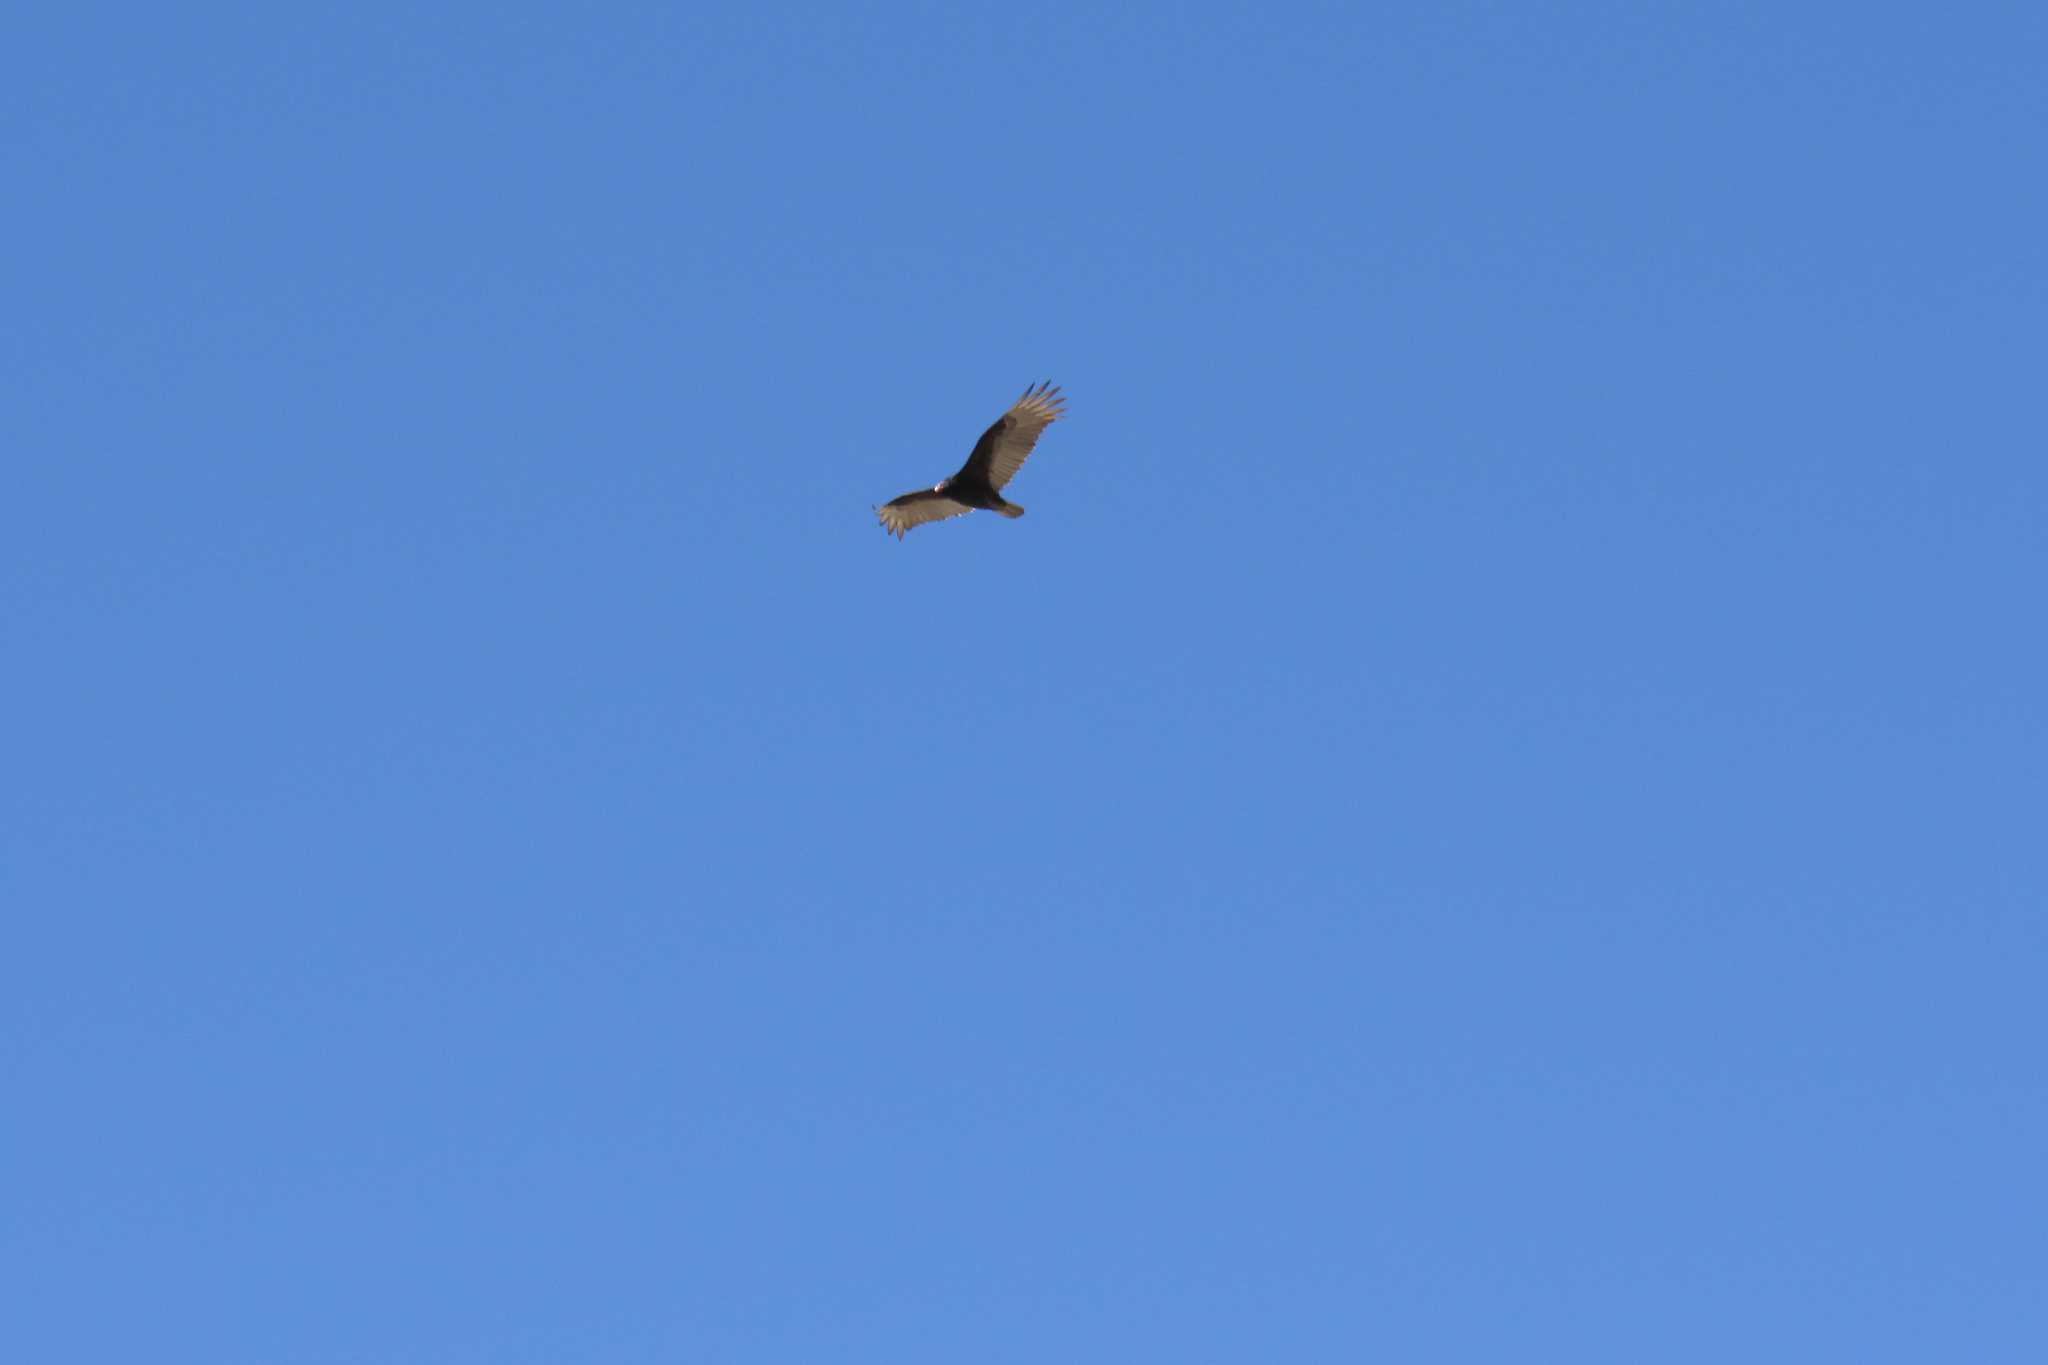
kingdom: Animalia
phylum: Chordata
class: Aves
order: Accipitriformes
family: Cathartidae
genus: Cathartes
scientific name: Cathartes aura
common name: Turkey vulture
